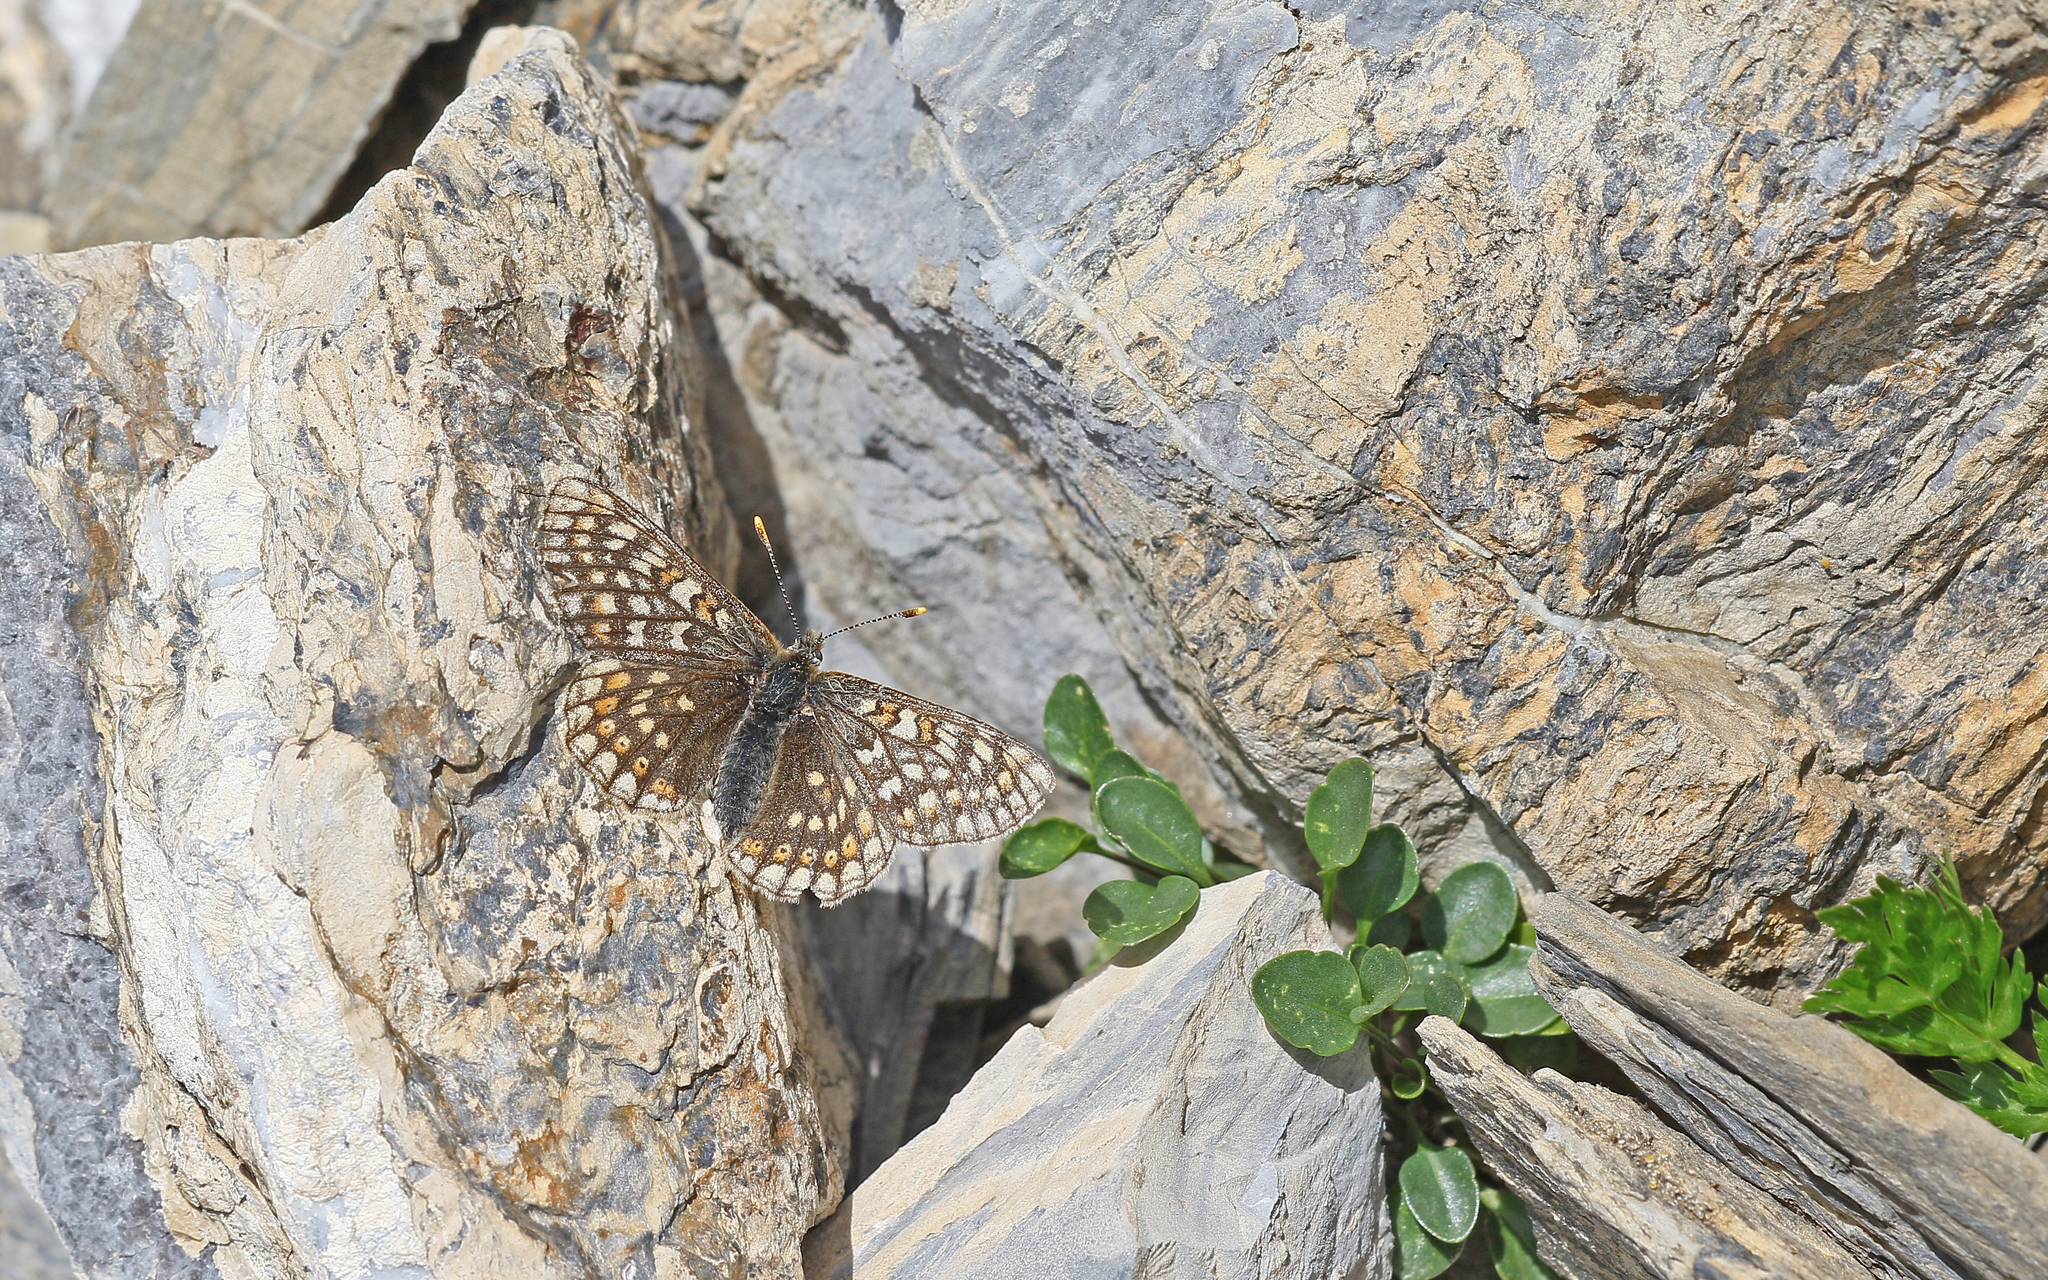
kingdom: Animalia
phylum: Arthropoda
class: Insecta
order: Lepidoptera
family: Nymphalidae
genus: Euphydryas
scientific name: Euphydryas aurinia
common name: Marsh fritillary
